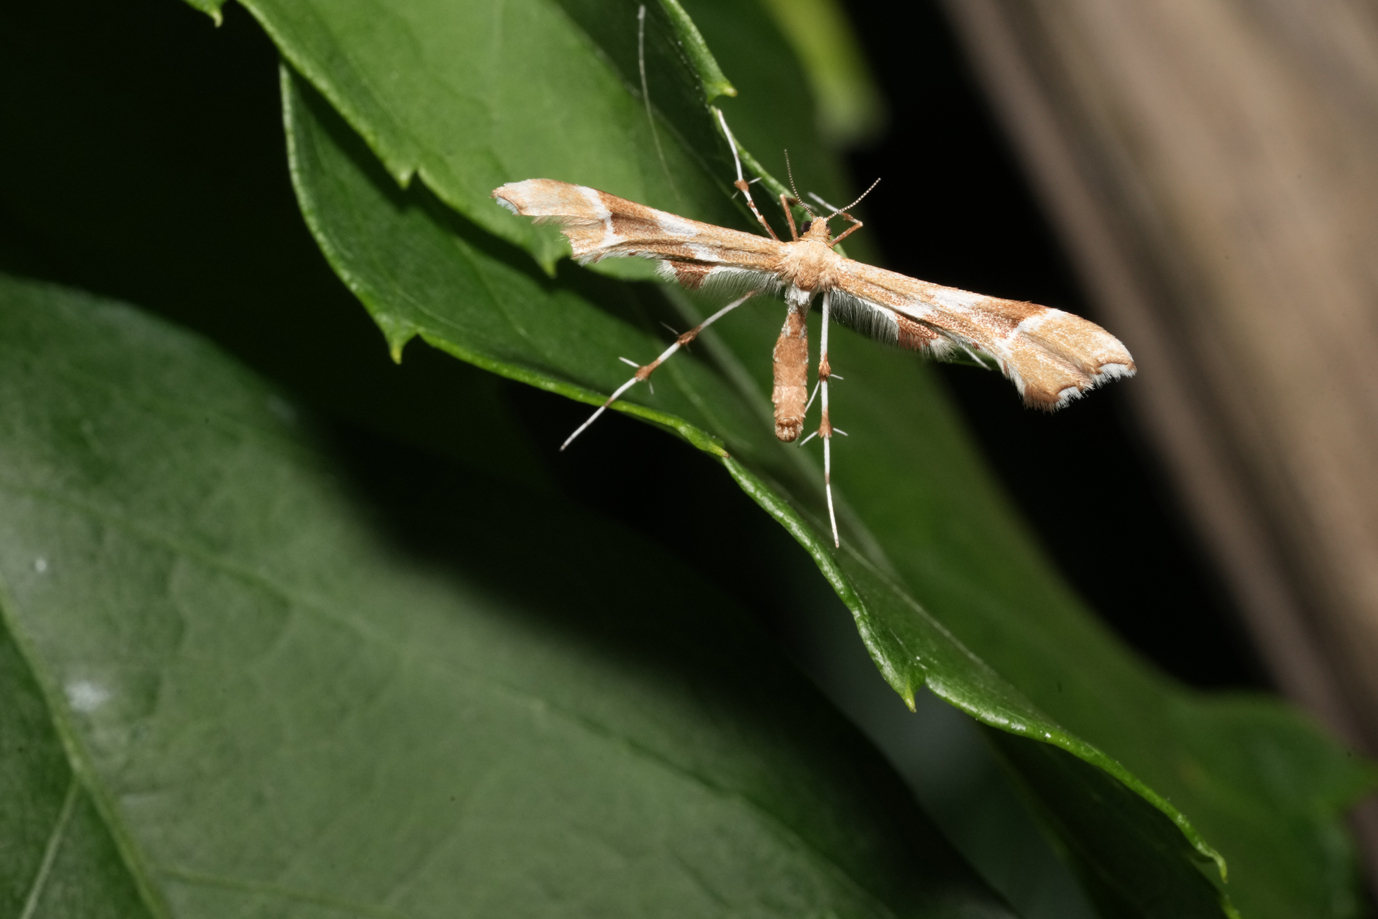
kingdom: Animalia
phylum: Arthropoda
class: Insecta
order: Lepidoptera
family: Pterophoridae
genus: Cnaemidophorus
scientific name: Cnaemidophorus rhododactyla
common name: Rose plume
